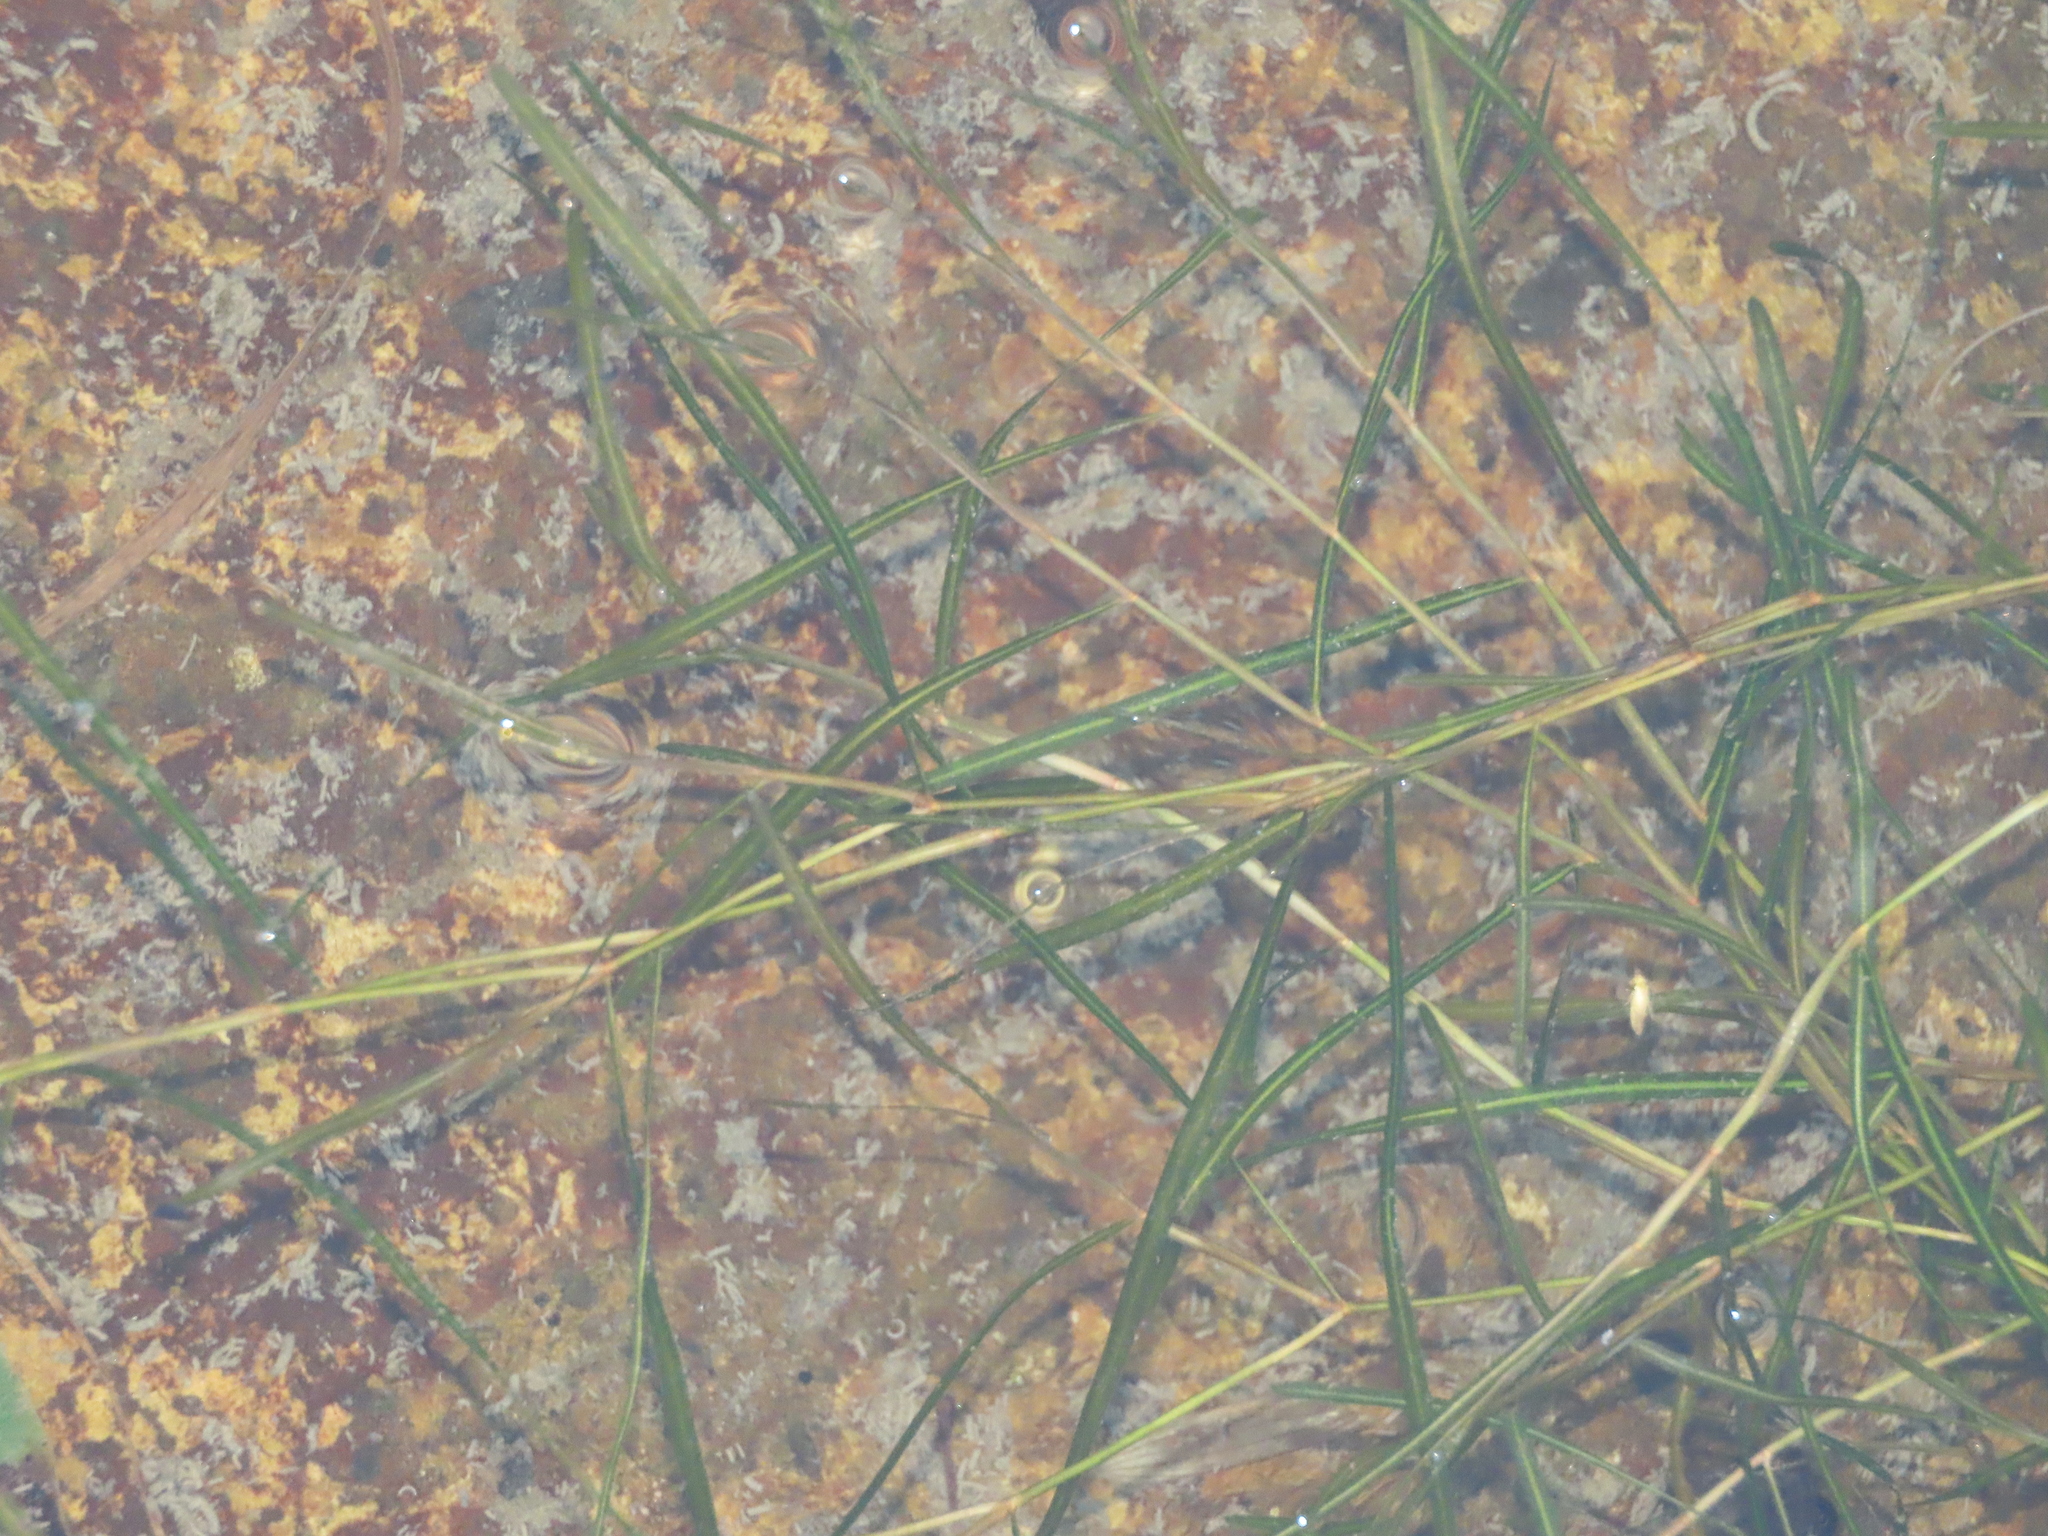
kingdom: Plantae
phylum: Tracheophyta
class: Liliopsida
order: Alismatales
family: Potamogetonaceae
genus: Potamogeton
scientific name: Potamogeton pusillus
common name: Lesser pondweed
